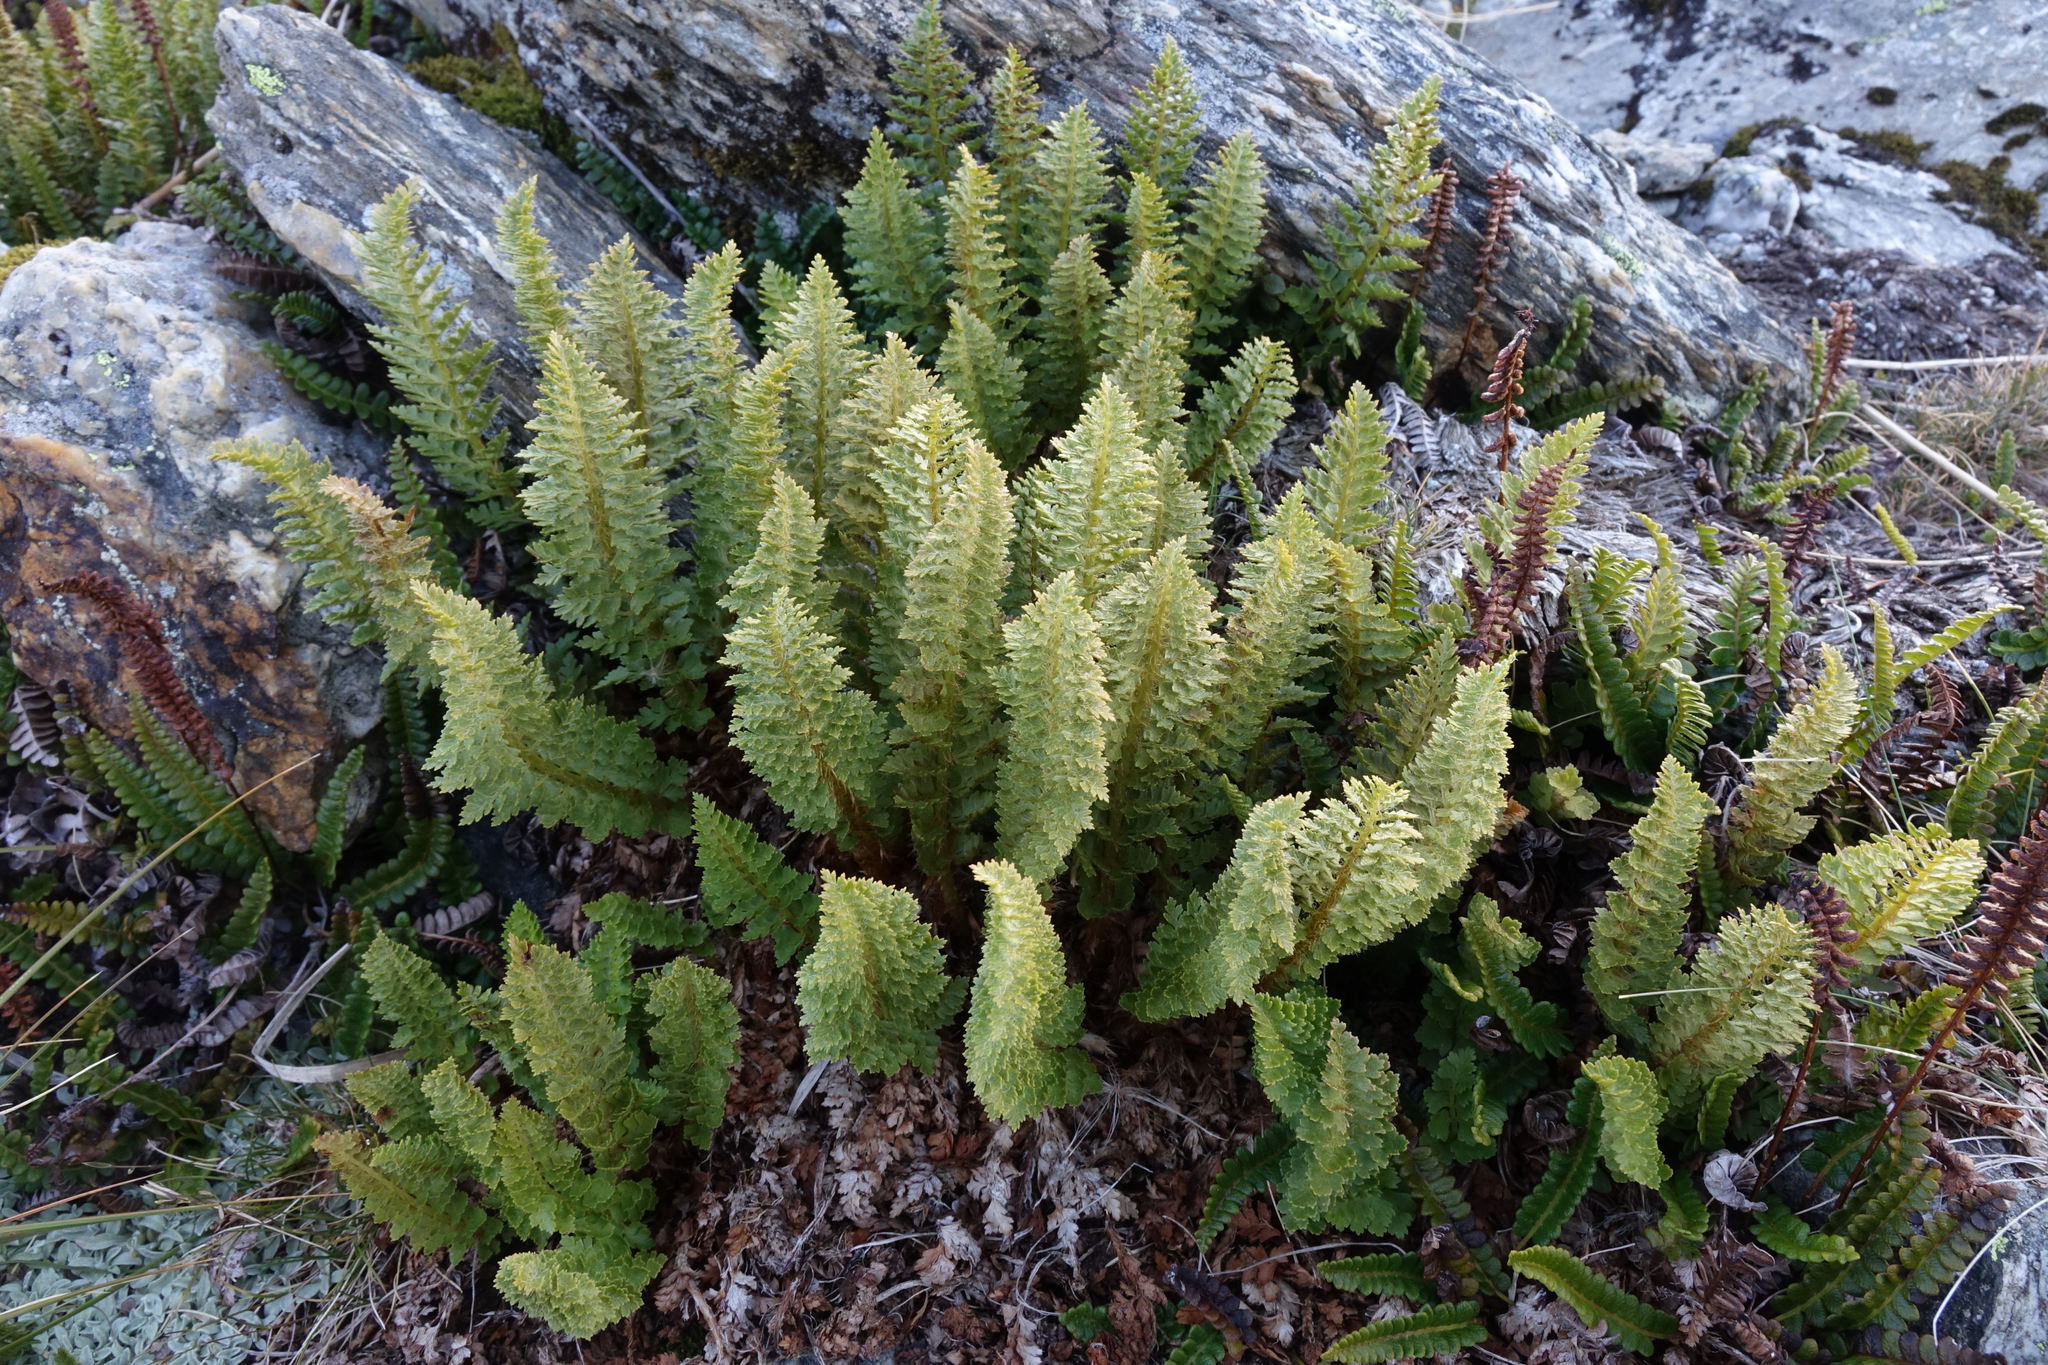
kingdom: Plantae
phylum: Tracheophyta
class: Polypodiopsida
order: Polypodiales
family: Dryopteridaceae
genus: Polystichum
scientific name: Polystichum cystostegia
